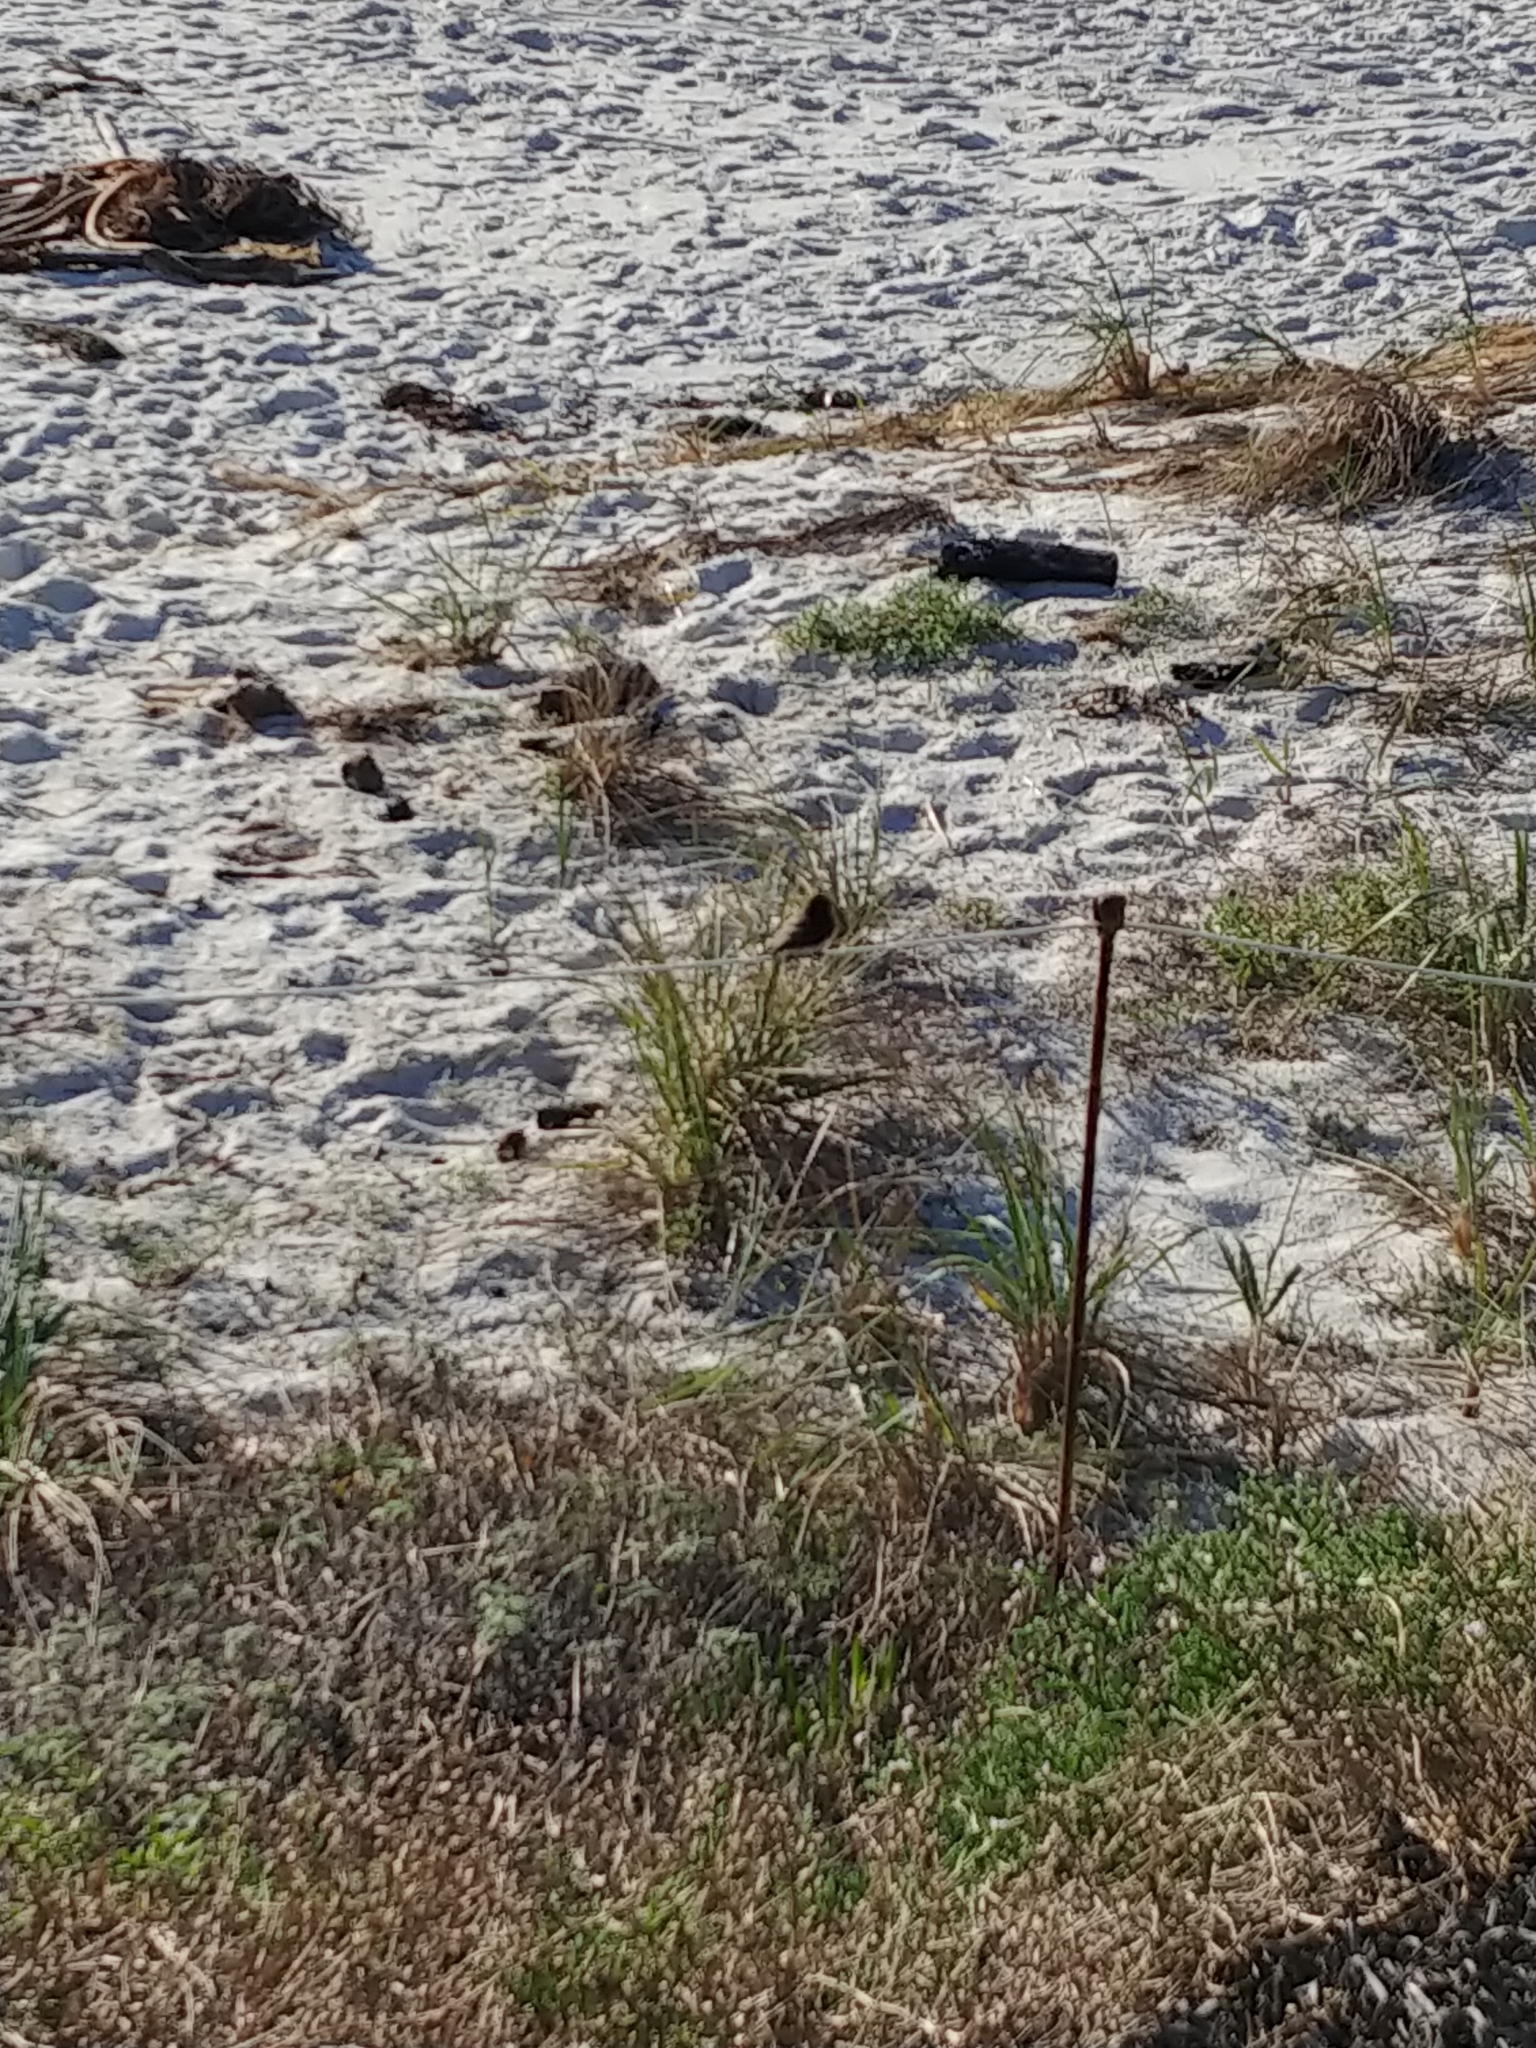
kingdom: Animalia
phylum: Chordata
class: Aves
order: Passeriformes
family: Tyrannidae
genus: Sayornis
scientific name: Sayornis nigricans
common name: Black phoebe
